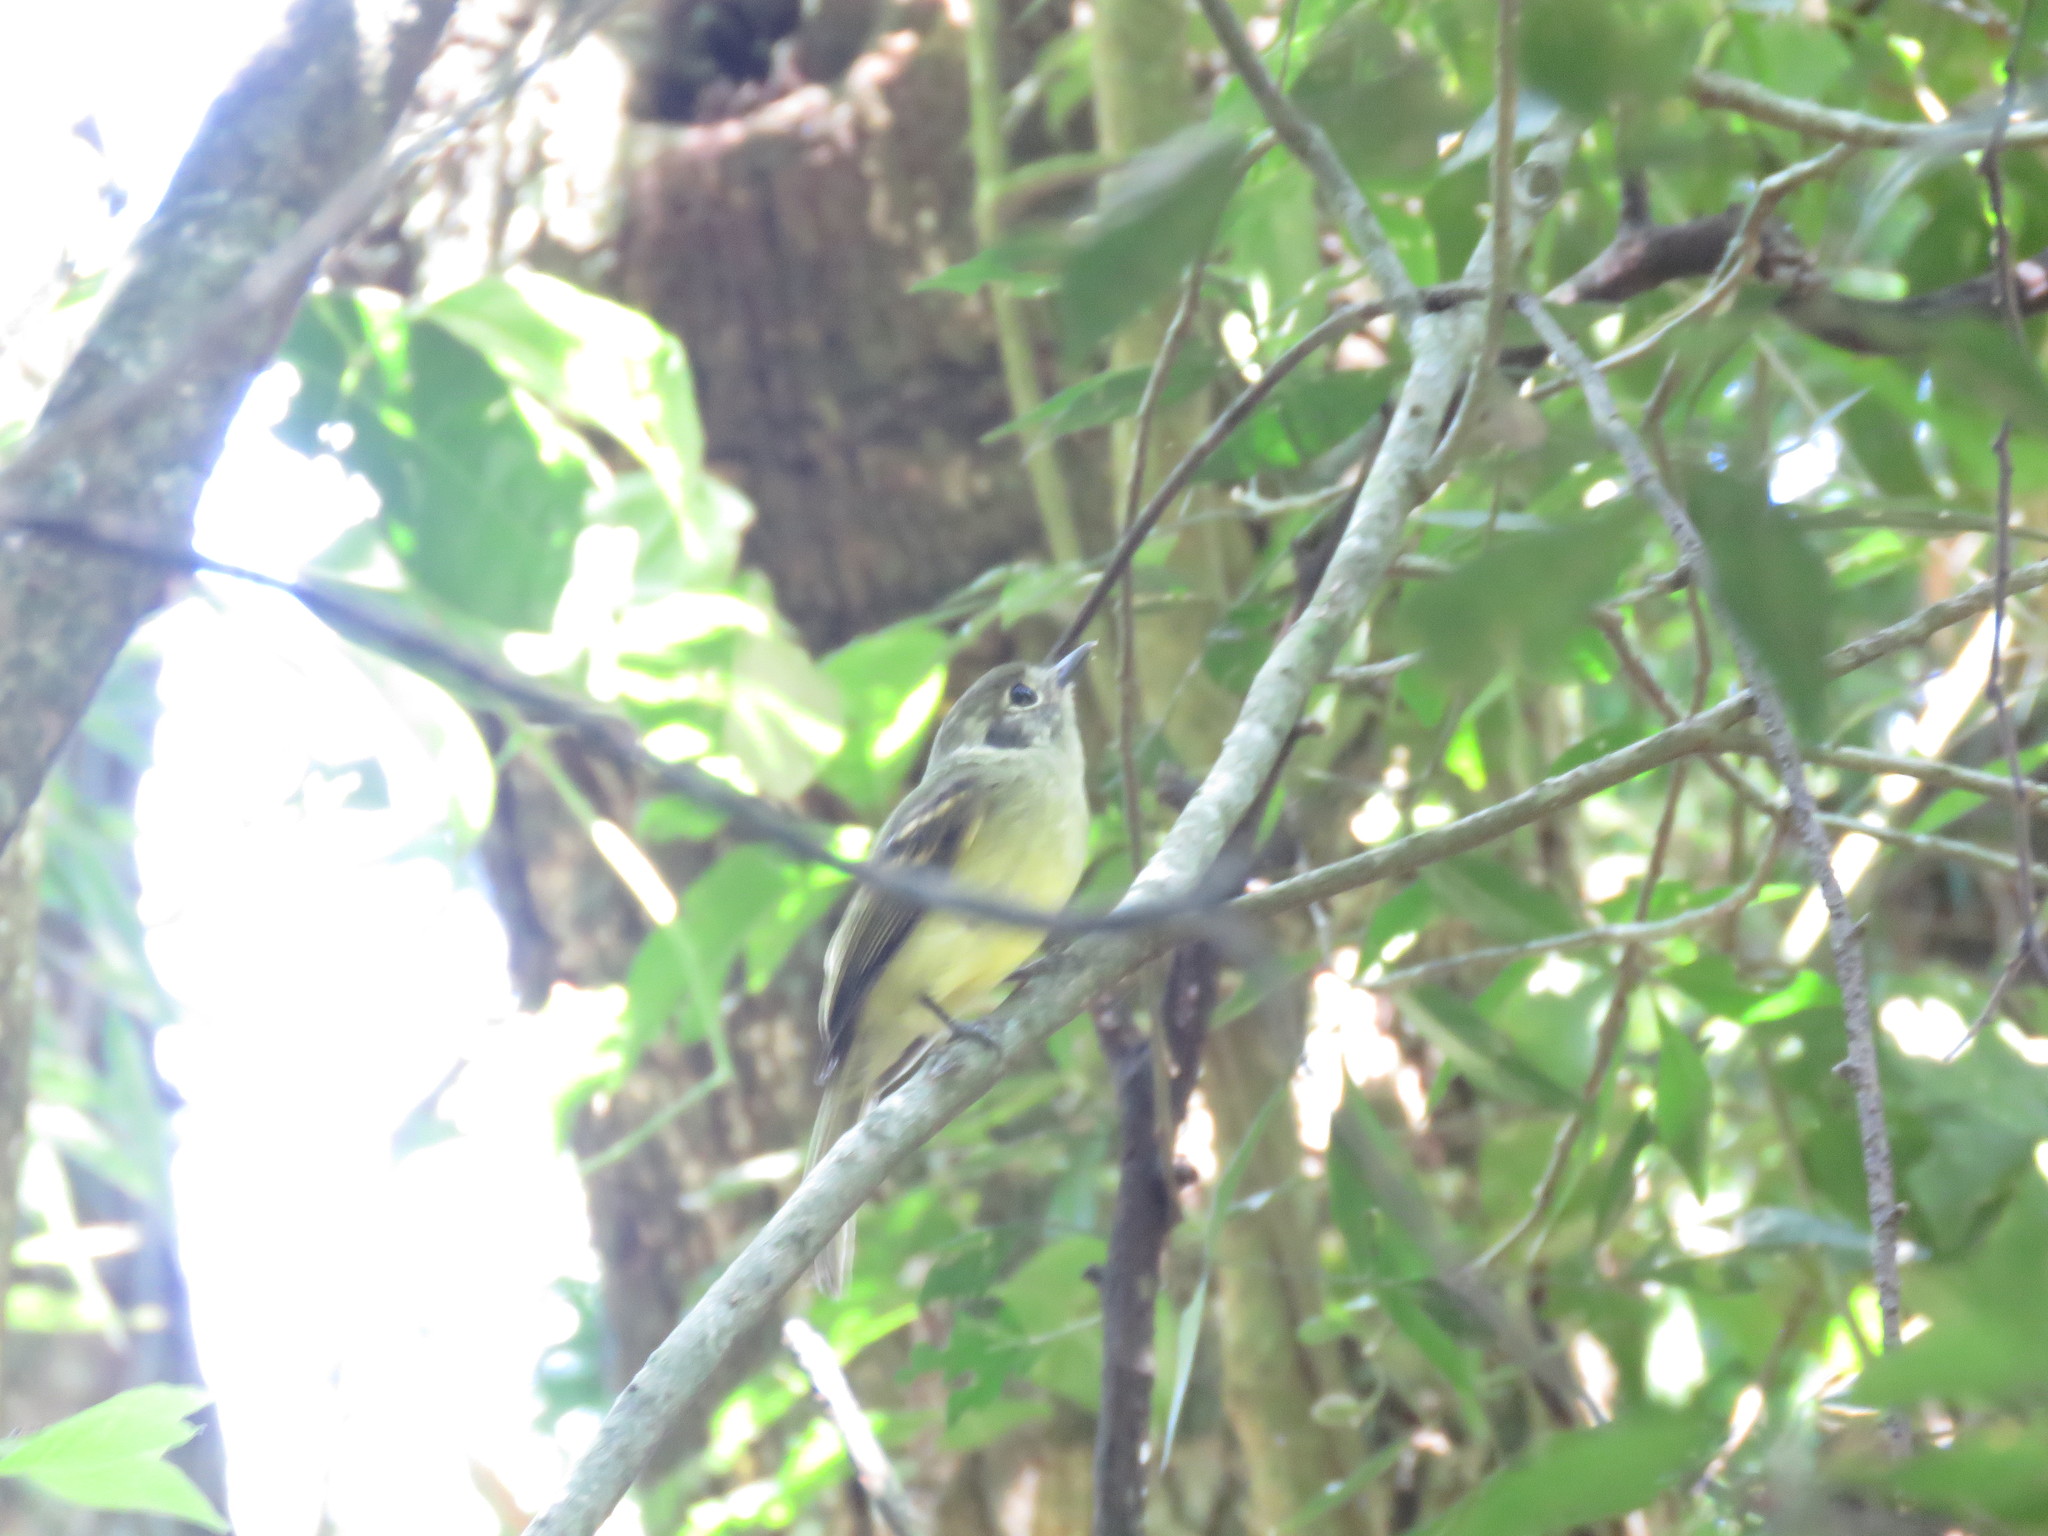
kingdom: Animalia
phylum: Chordata
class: Aves
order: Passeriformes
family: Tyrannidae
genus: Leptopogon
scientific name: Leptopogon amaurocephalus
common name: Sepia-capped flycatcher
